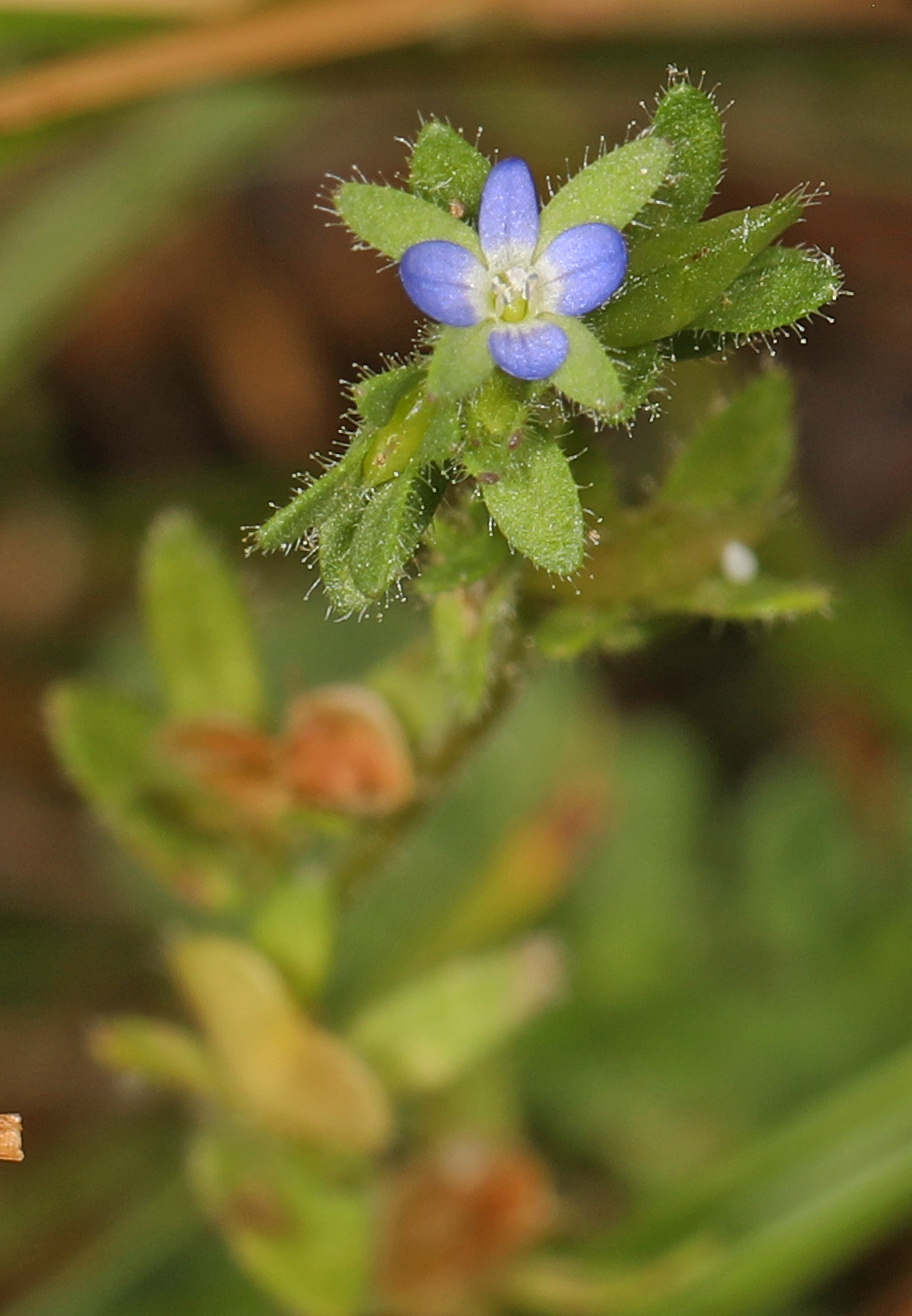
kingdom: Plantae
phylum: Tracheophyta
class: Magnoliopsida
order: Lamiales
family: Plantaginaceae
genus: Veronica
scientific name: Veronica arvensis
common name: Corn speedwell
